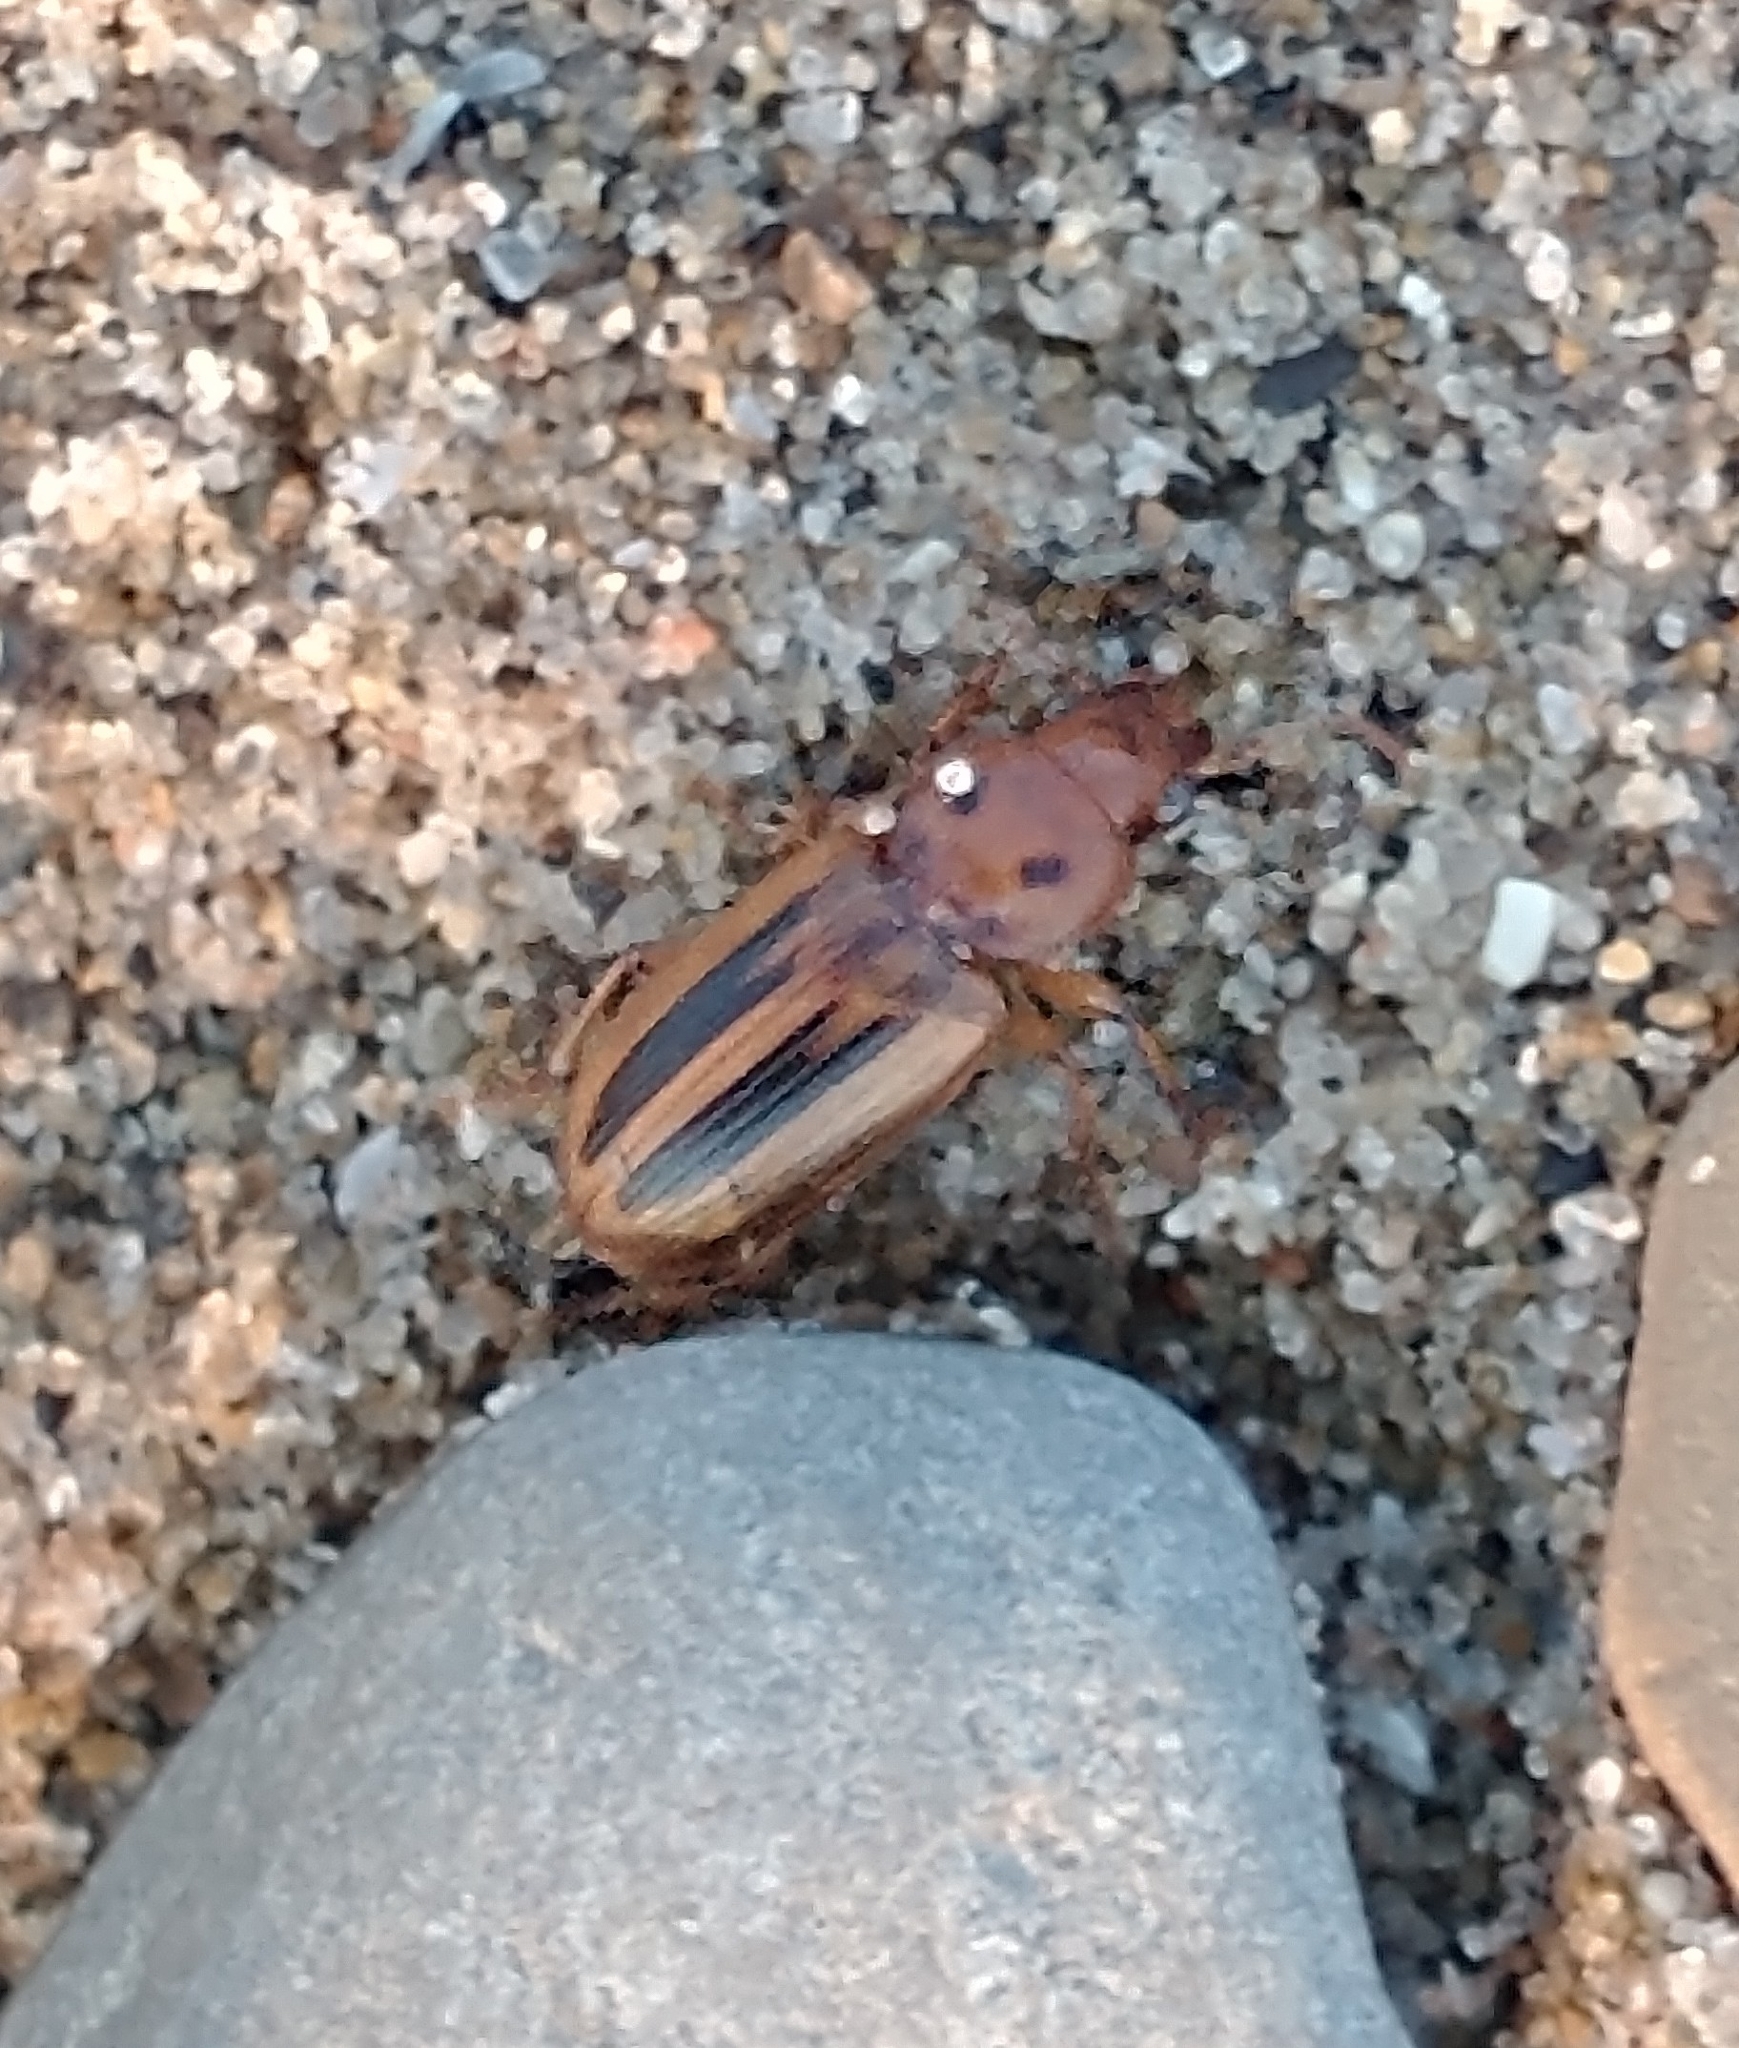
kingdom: Animalia
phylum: Arthropoda
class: Insecta
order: Coleoptera
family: Carabidae
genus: Stenolophus
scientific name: Stenolophus lecontei
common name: Leconte's seedcorn beetle
